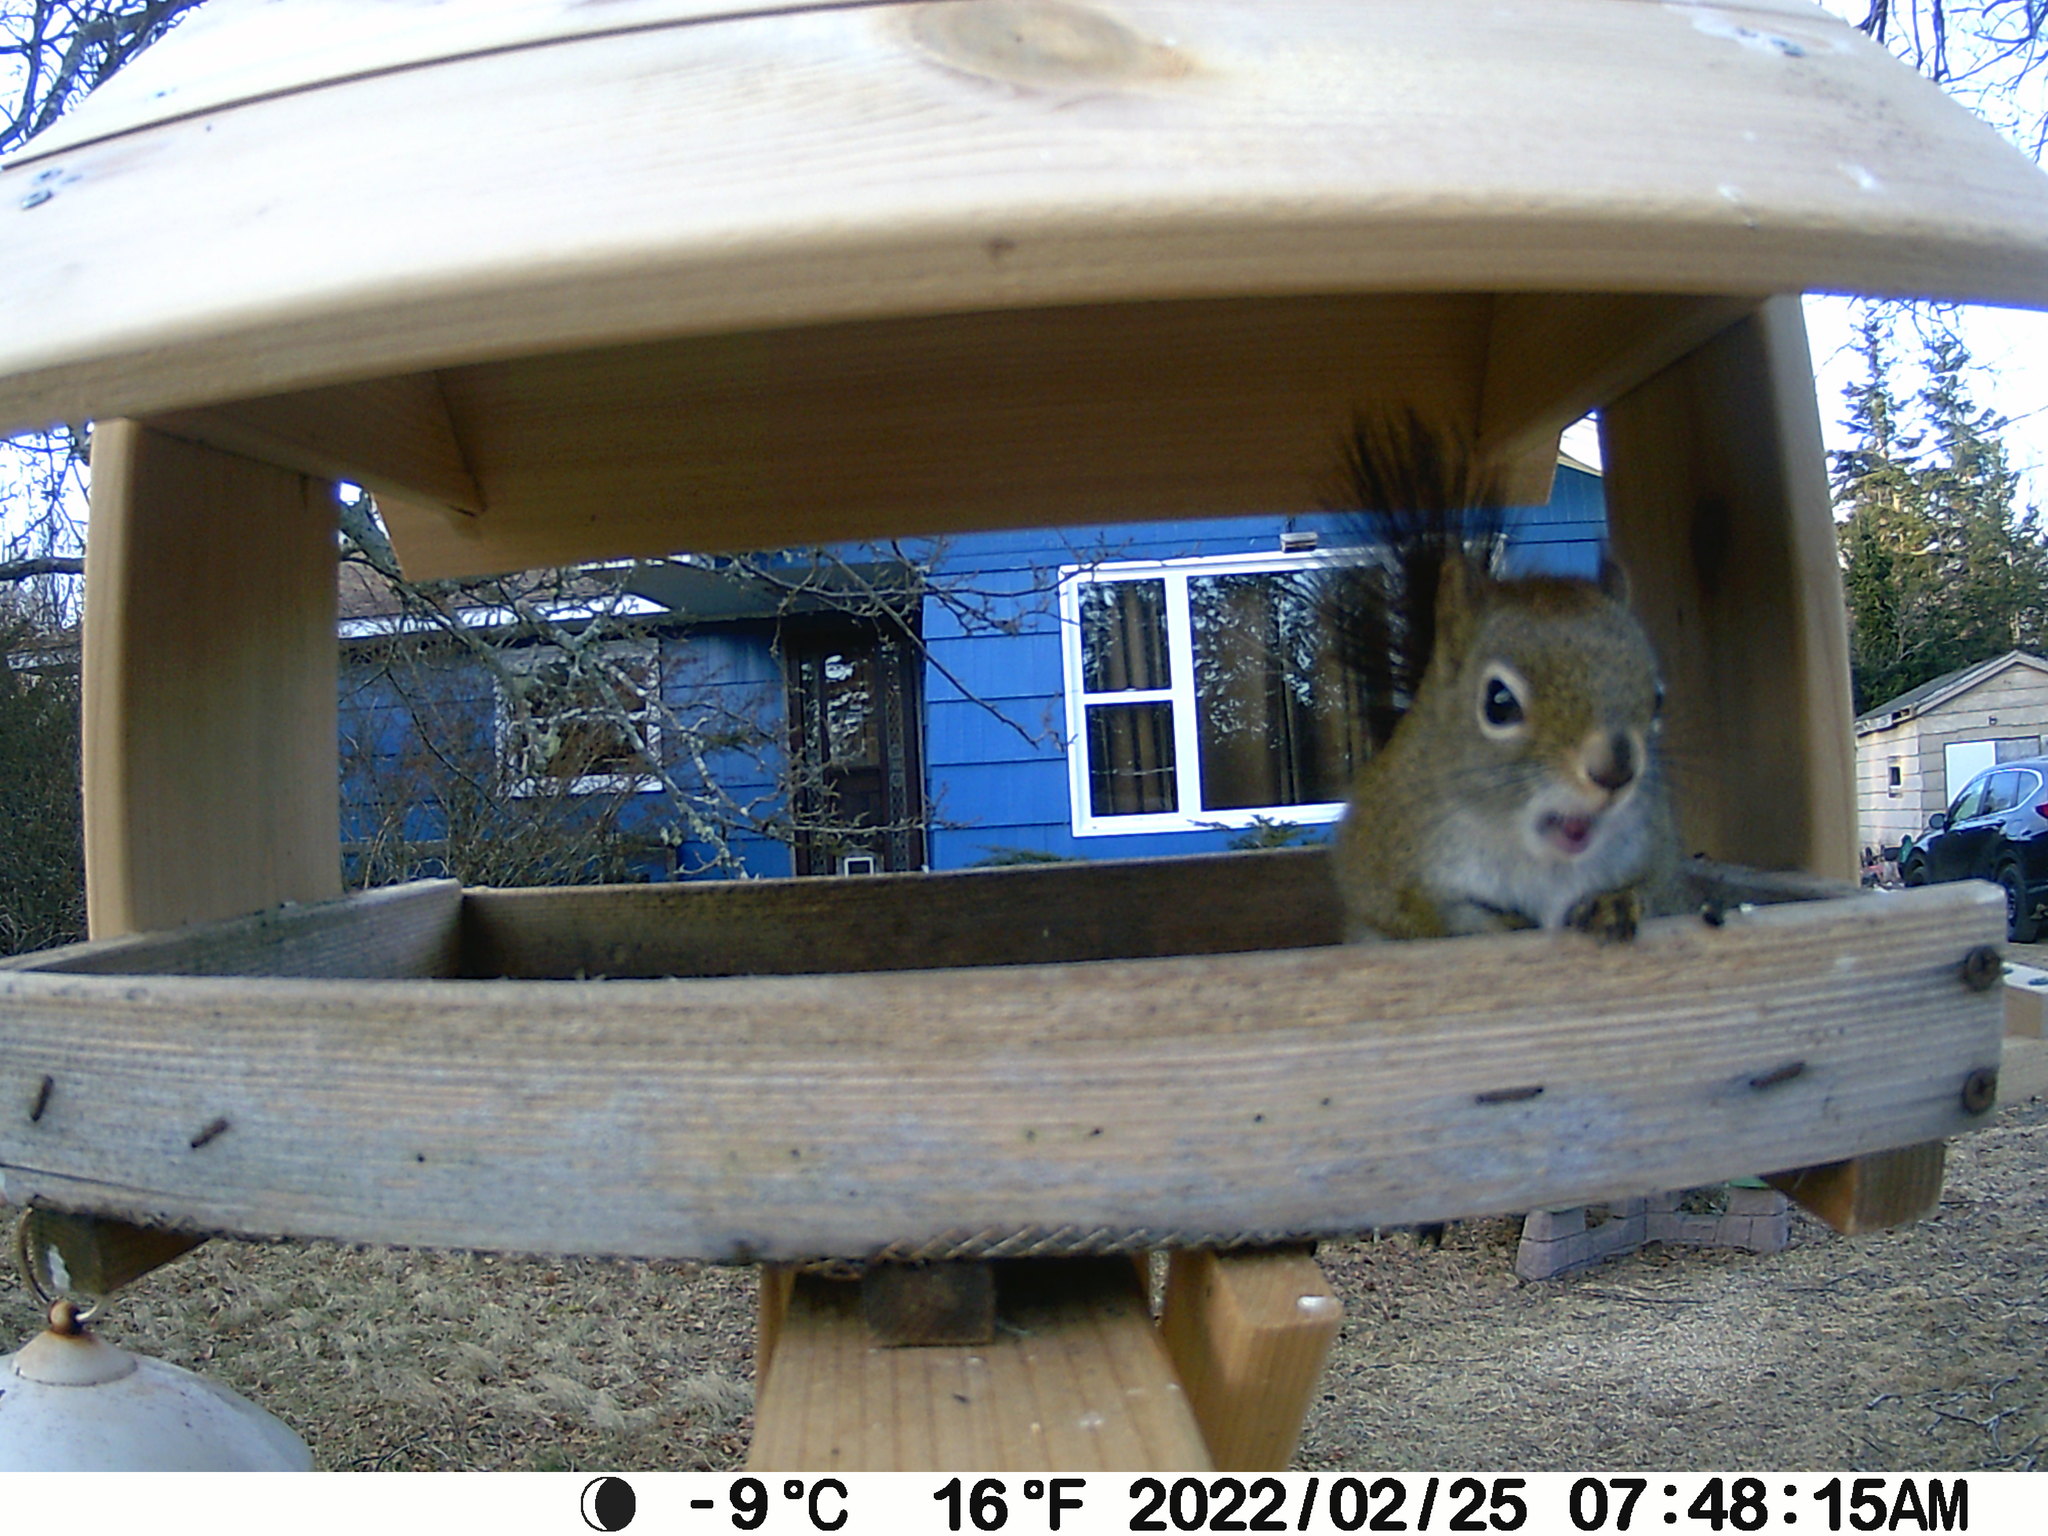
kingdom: Animalia
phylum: Chordata
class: Mammalia
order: Rodentia
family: Sciuridae
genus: Tamiasciurus
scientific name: Tamiasciurus hudsonicus
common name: Red squirrel
